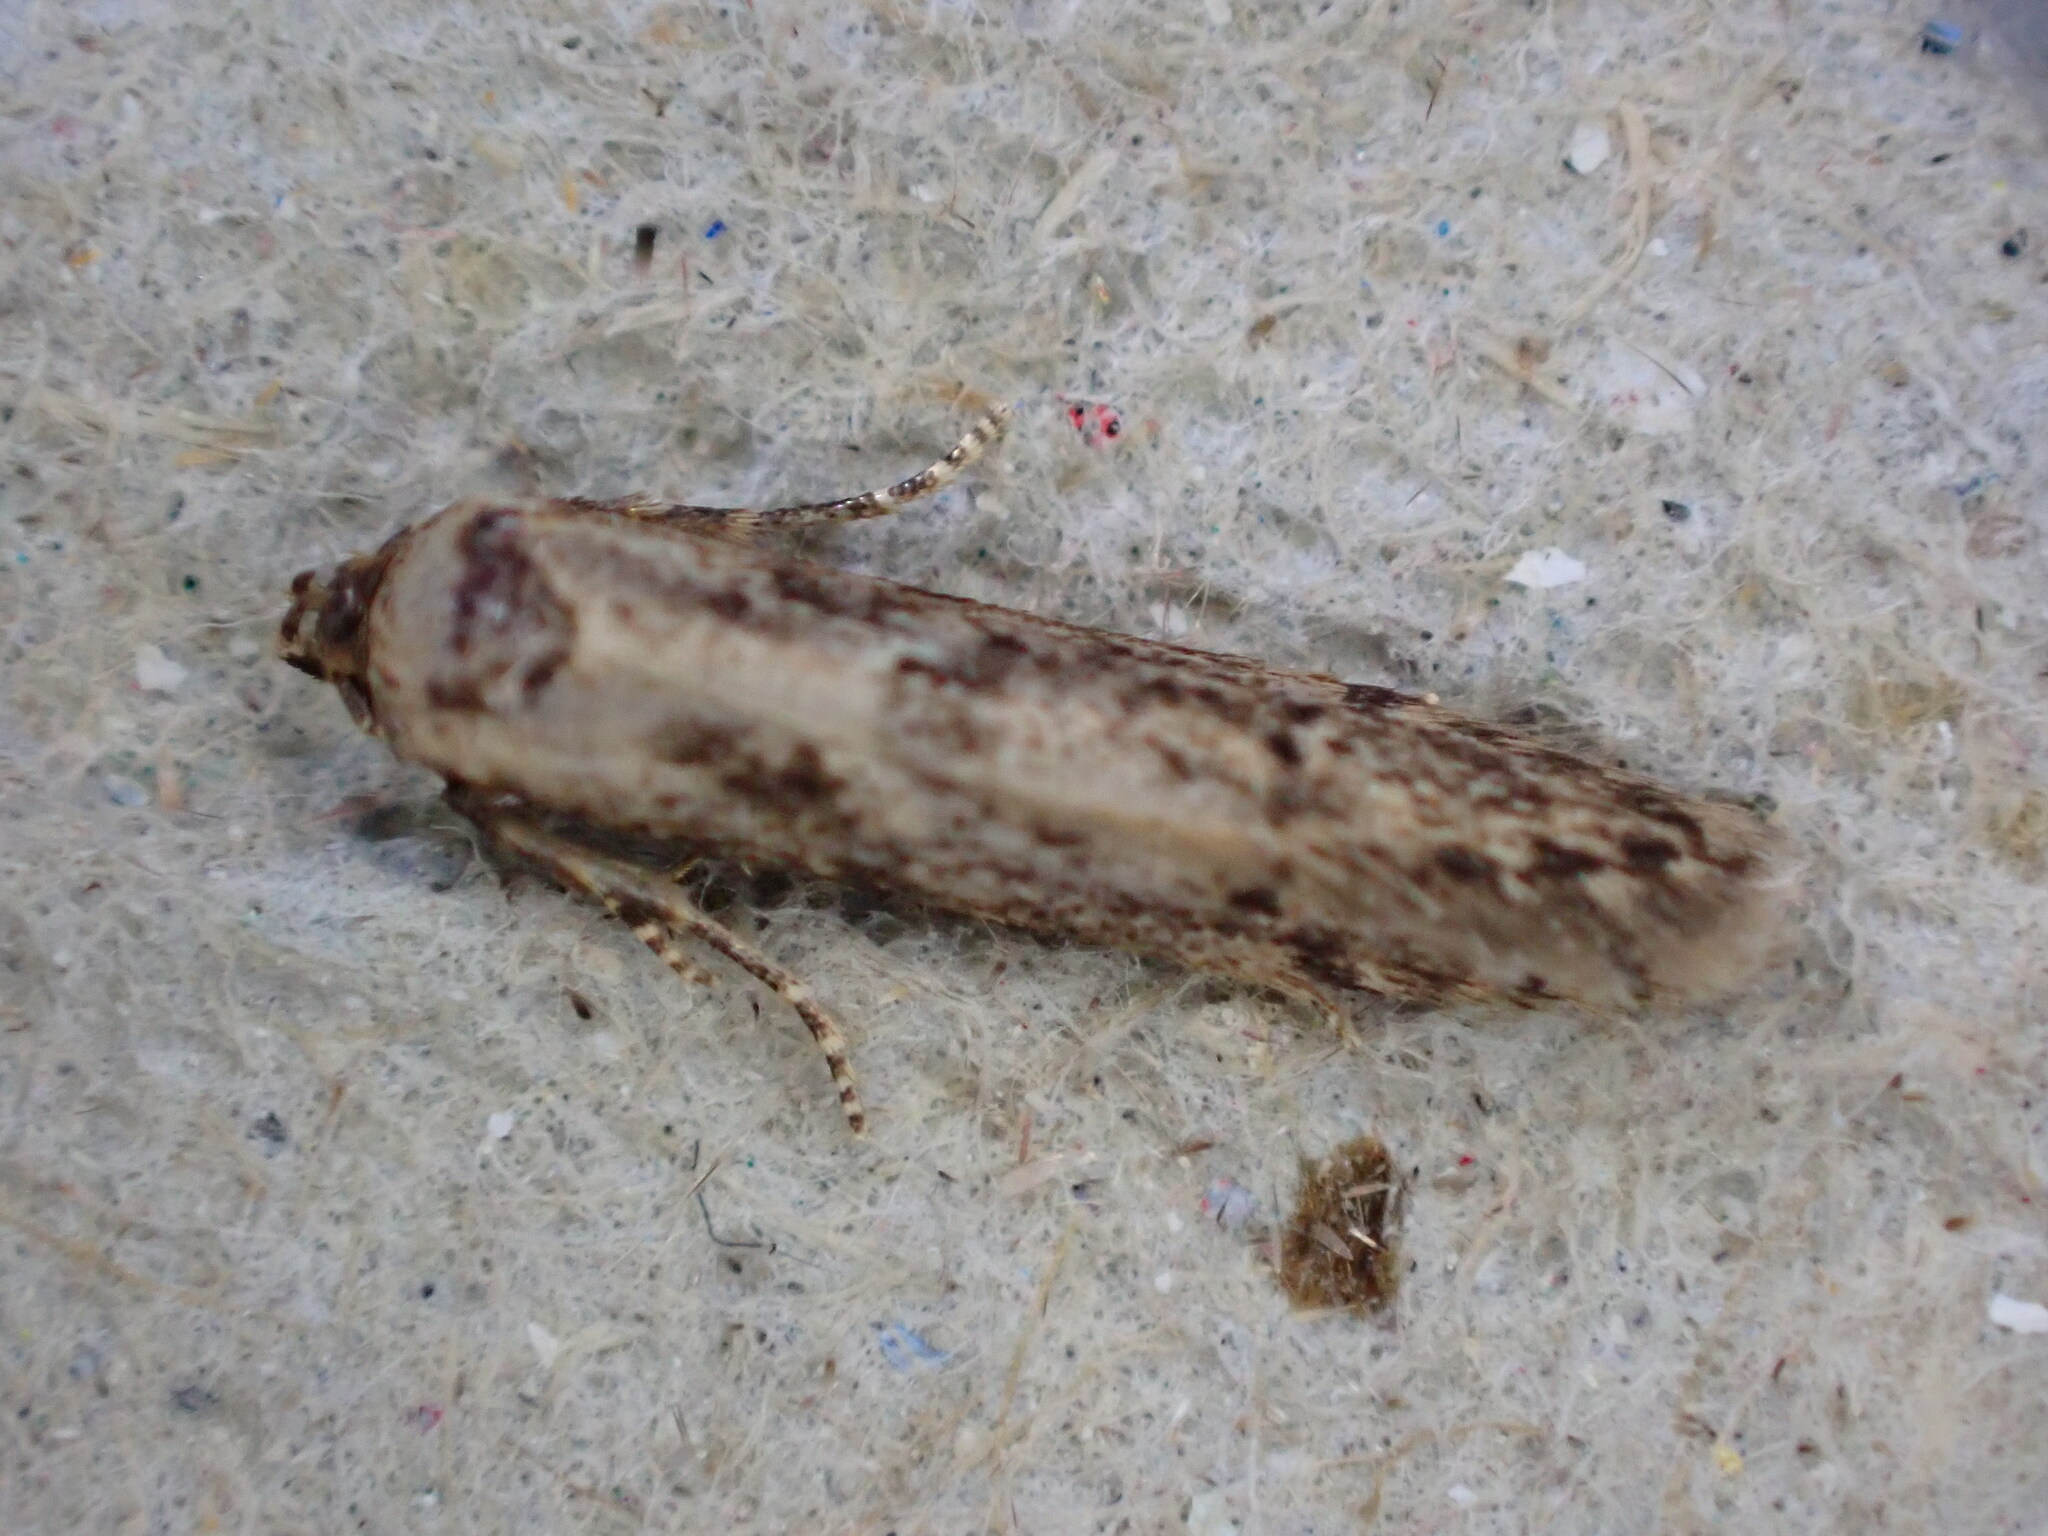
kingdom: Animalia
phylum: Arthropoda
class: Insecta
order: Lepidoptera
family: Blastobasidae
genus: Blastobasis
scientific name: Blastobasis adustella
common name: Dingy dowd
